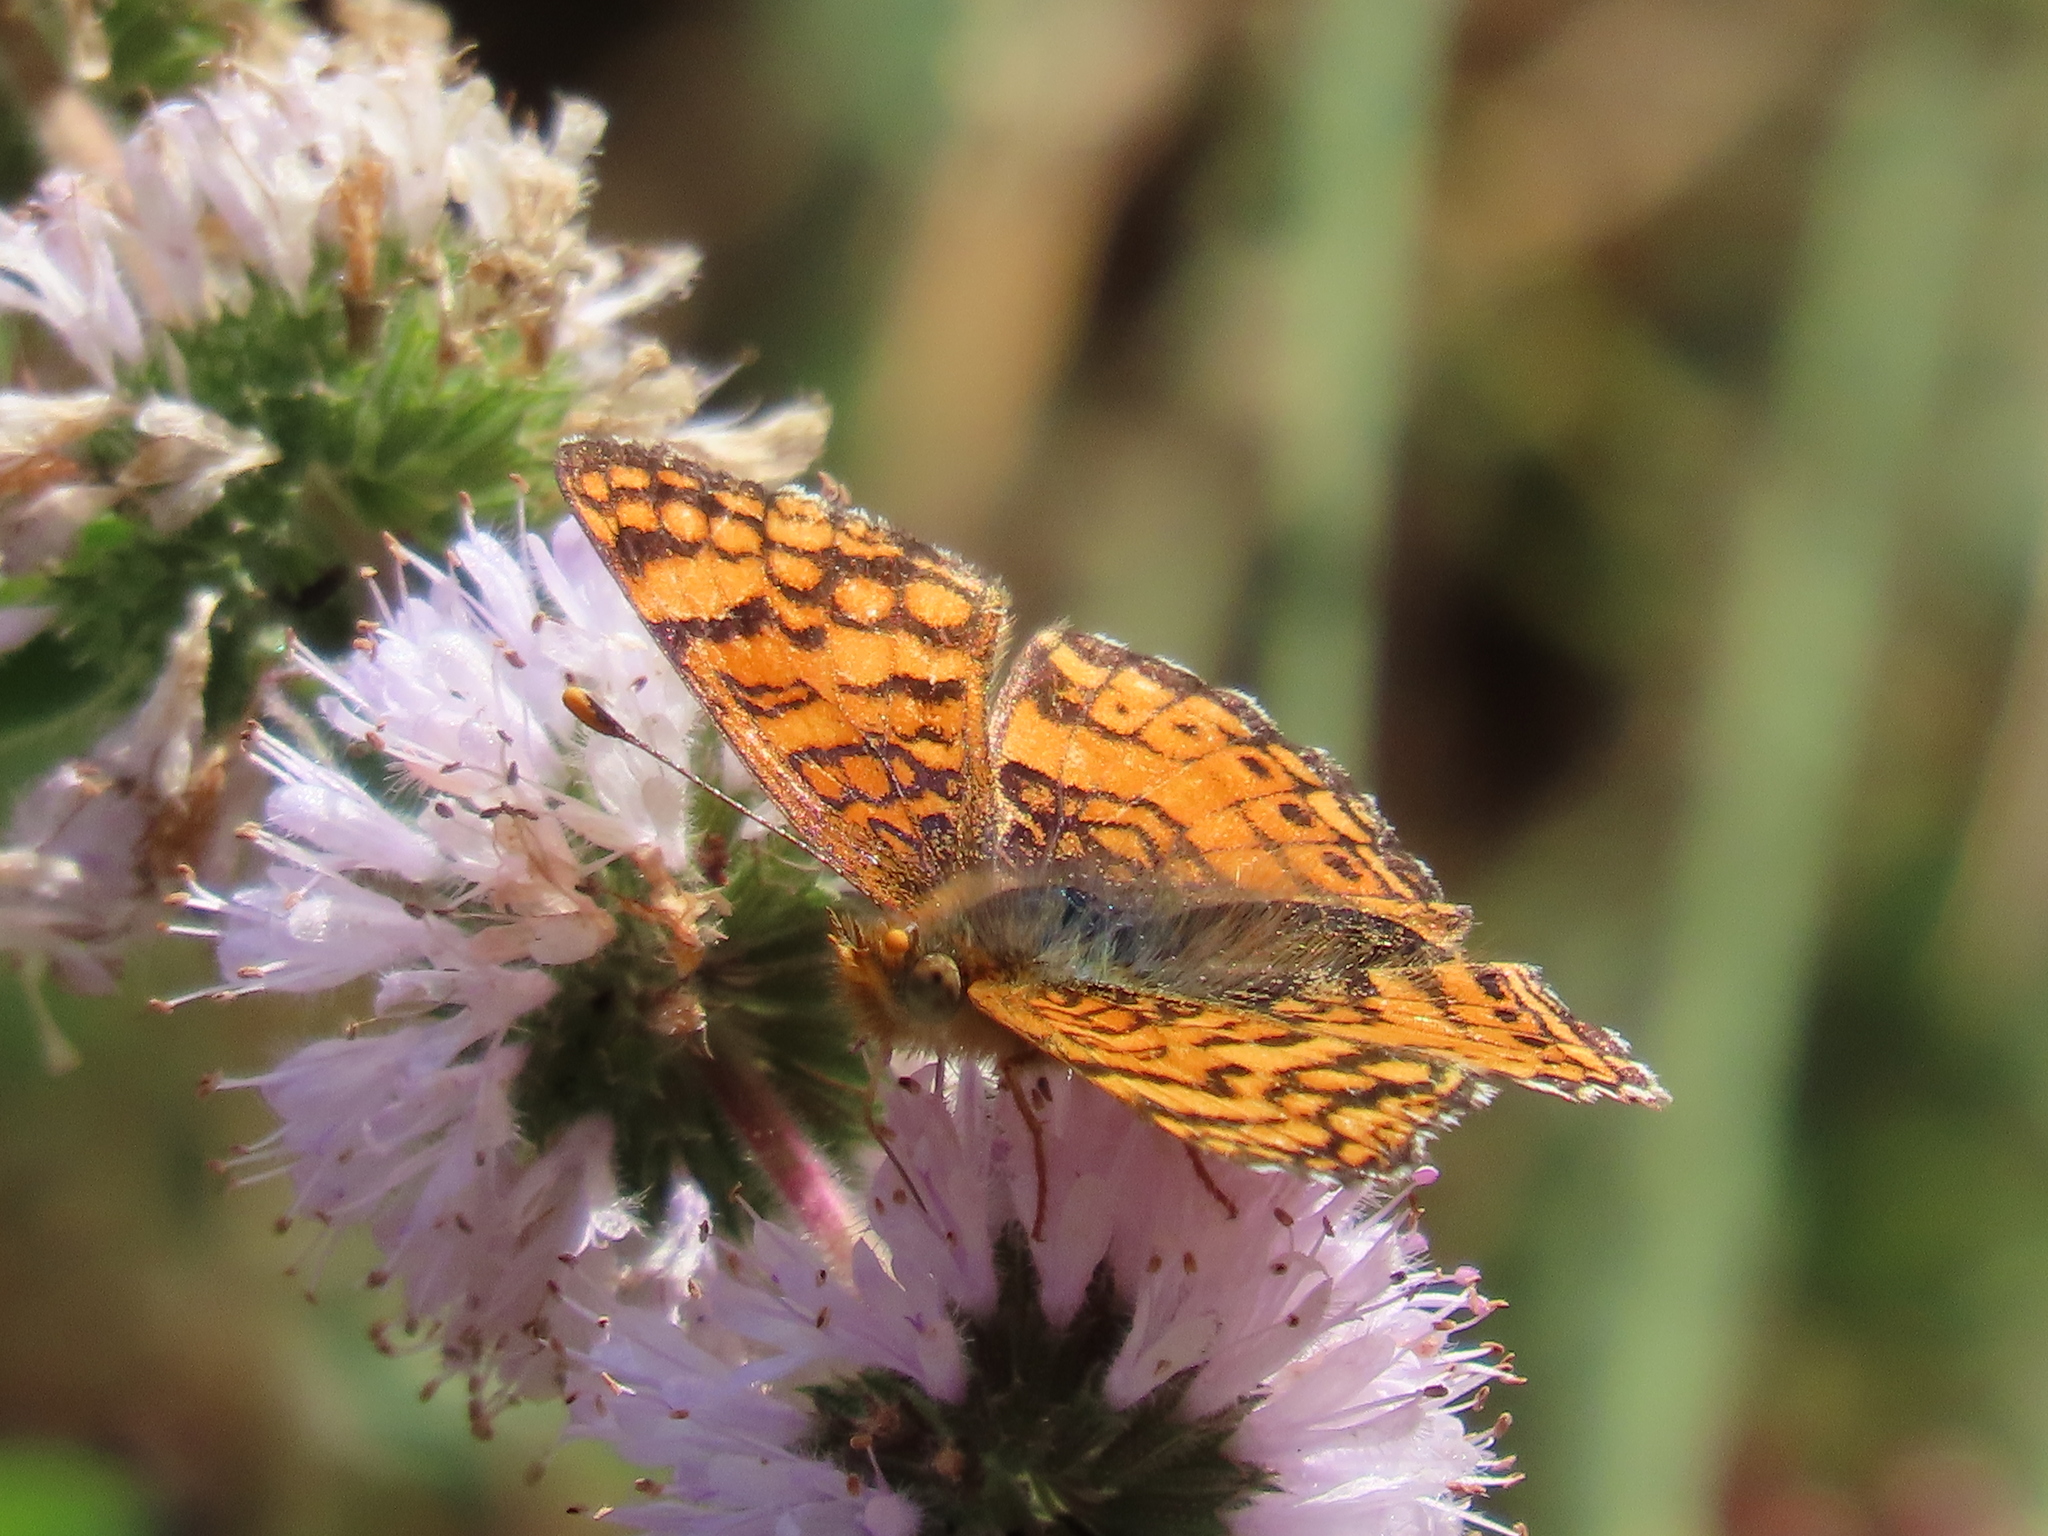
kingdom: Animalia
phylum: Arthropoda
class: Insecta
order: Lepidoptera
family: Nymphalidae
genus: Eresia
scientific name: Eresia aveyrona
